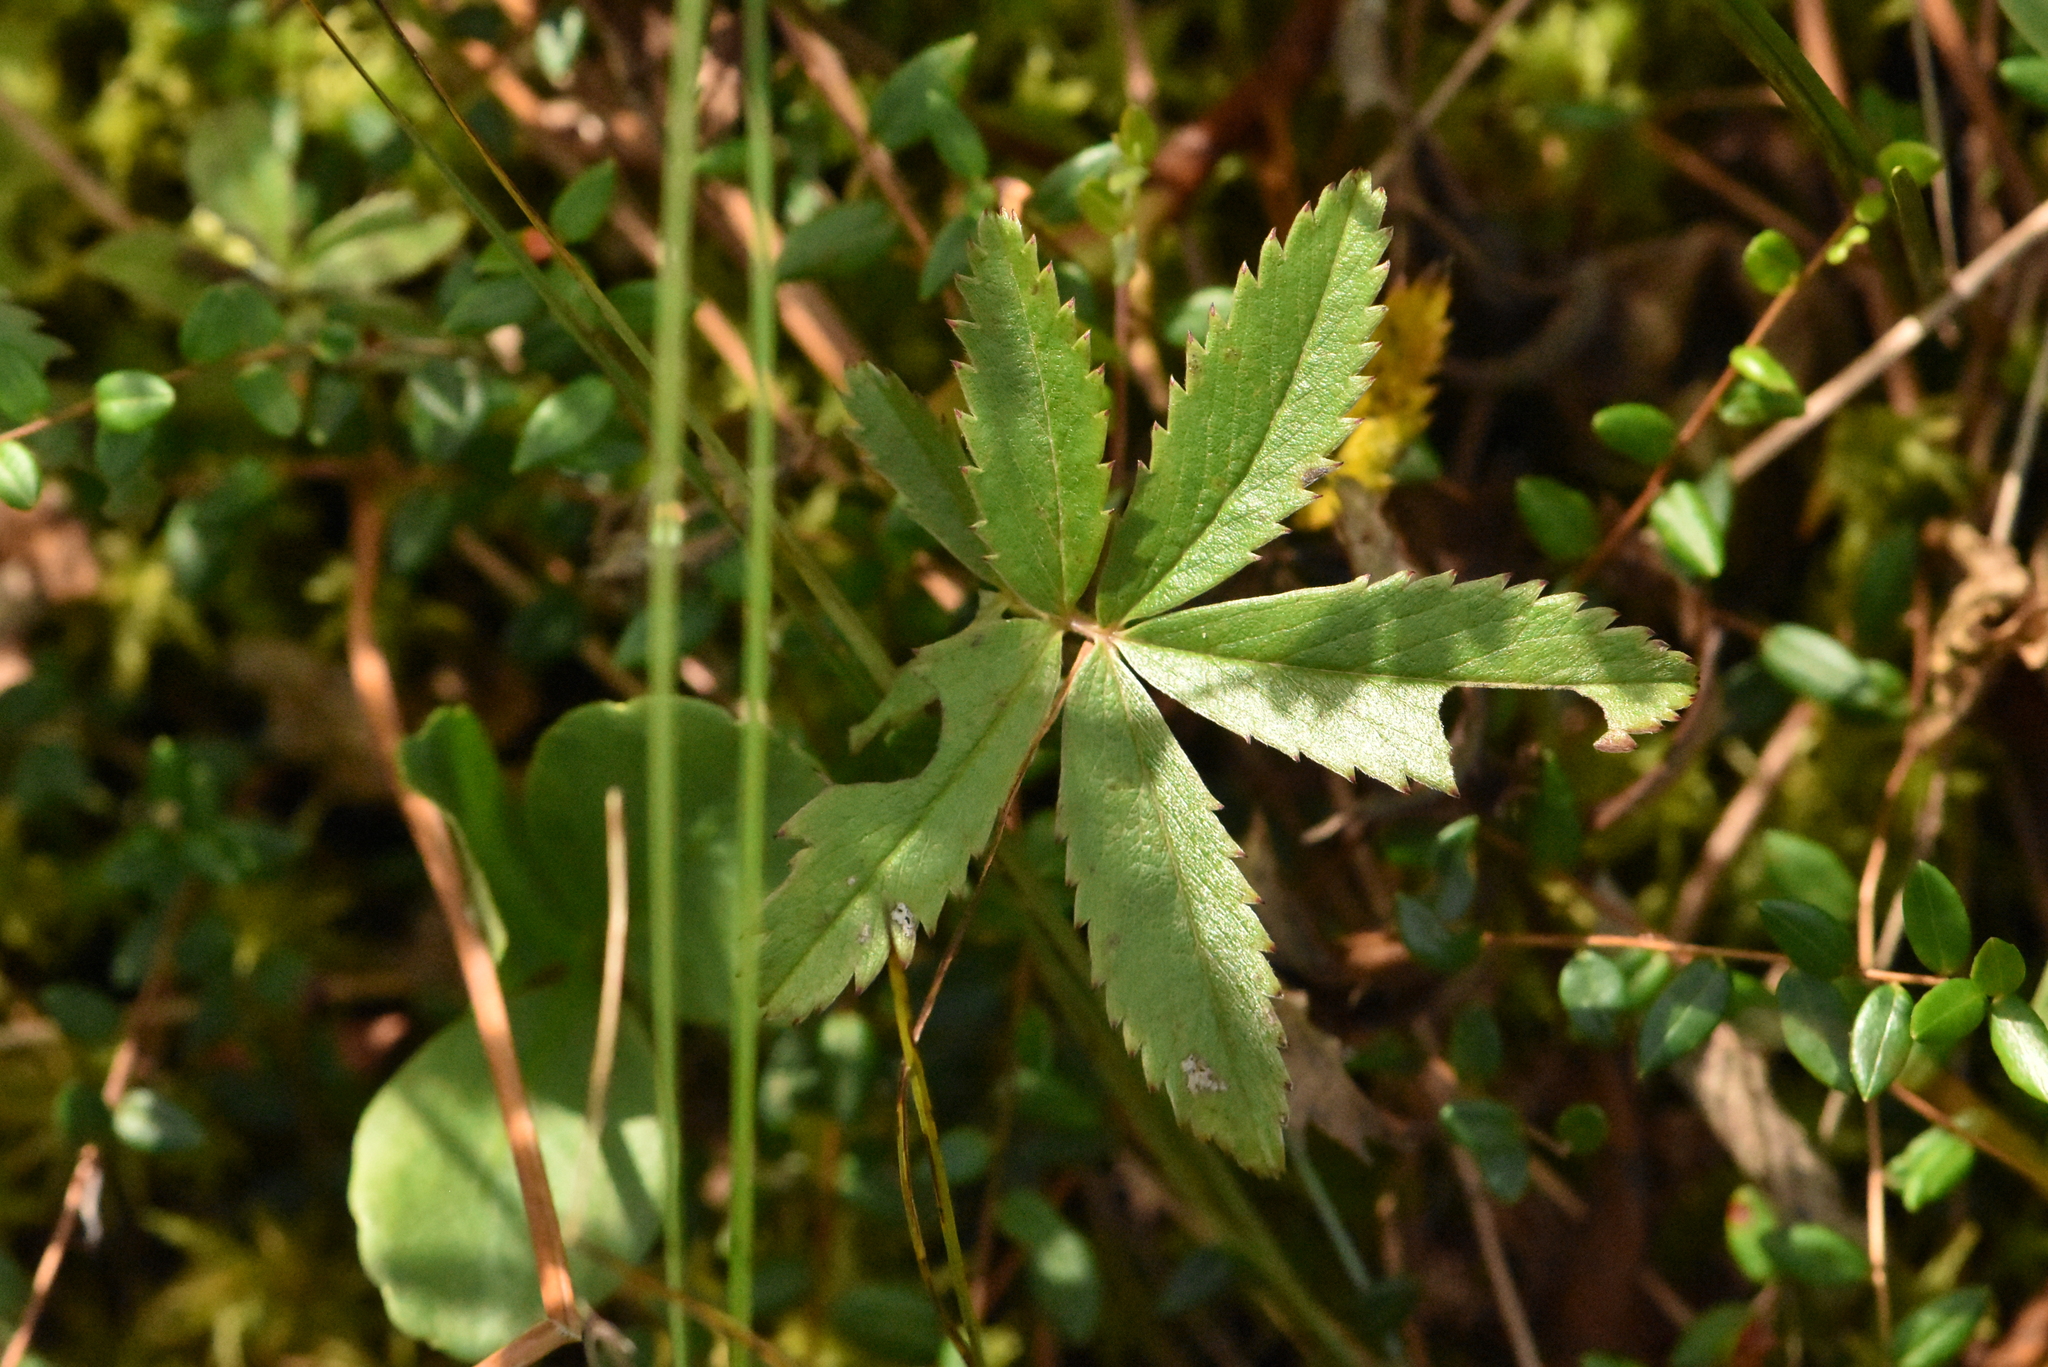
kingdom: Plantae
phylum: Tracheophyta
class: Magnoliopsida
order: Rosales
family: Rosaceae
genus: Comarum
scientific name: Comarum palustre
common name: Marsh cinquefoil
